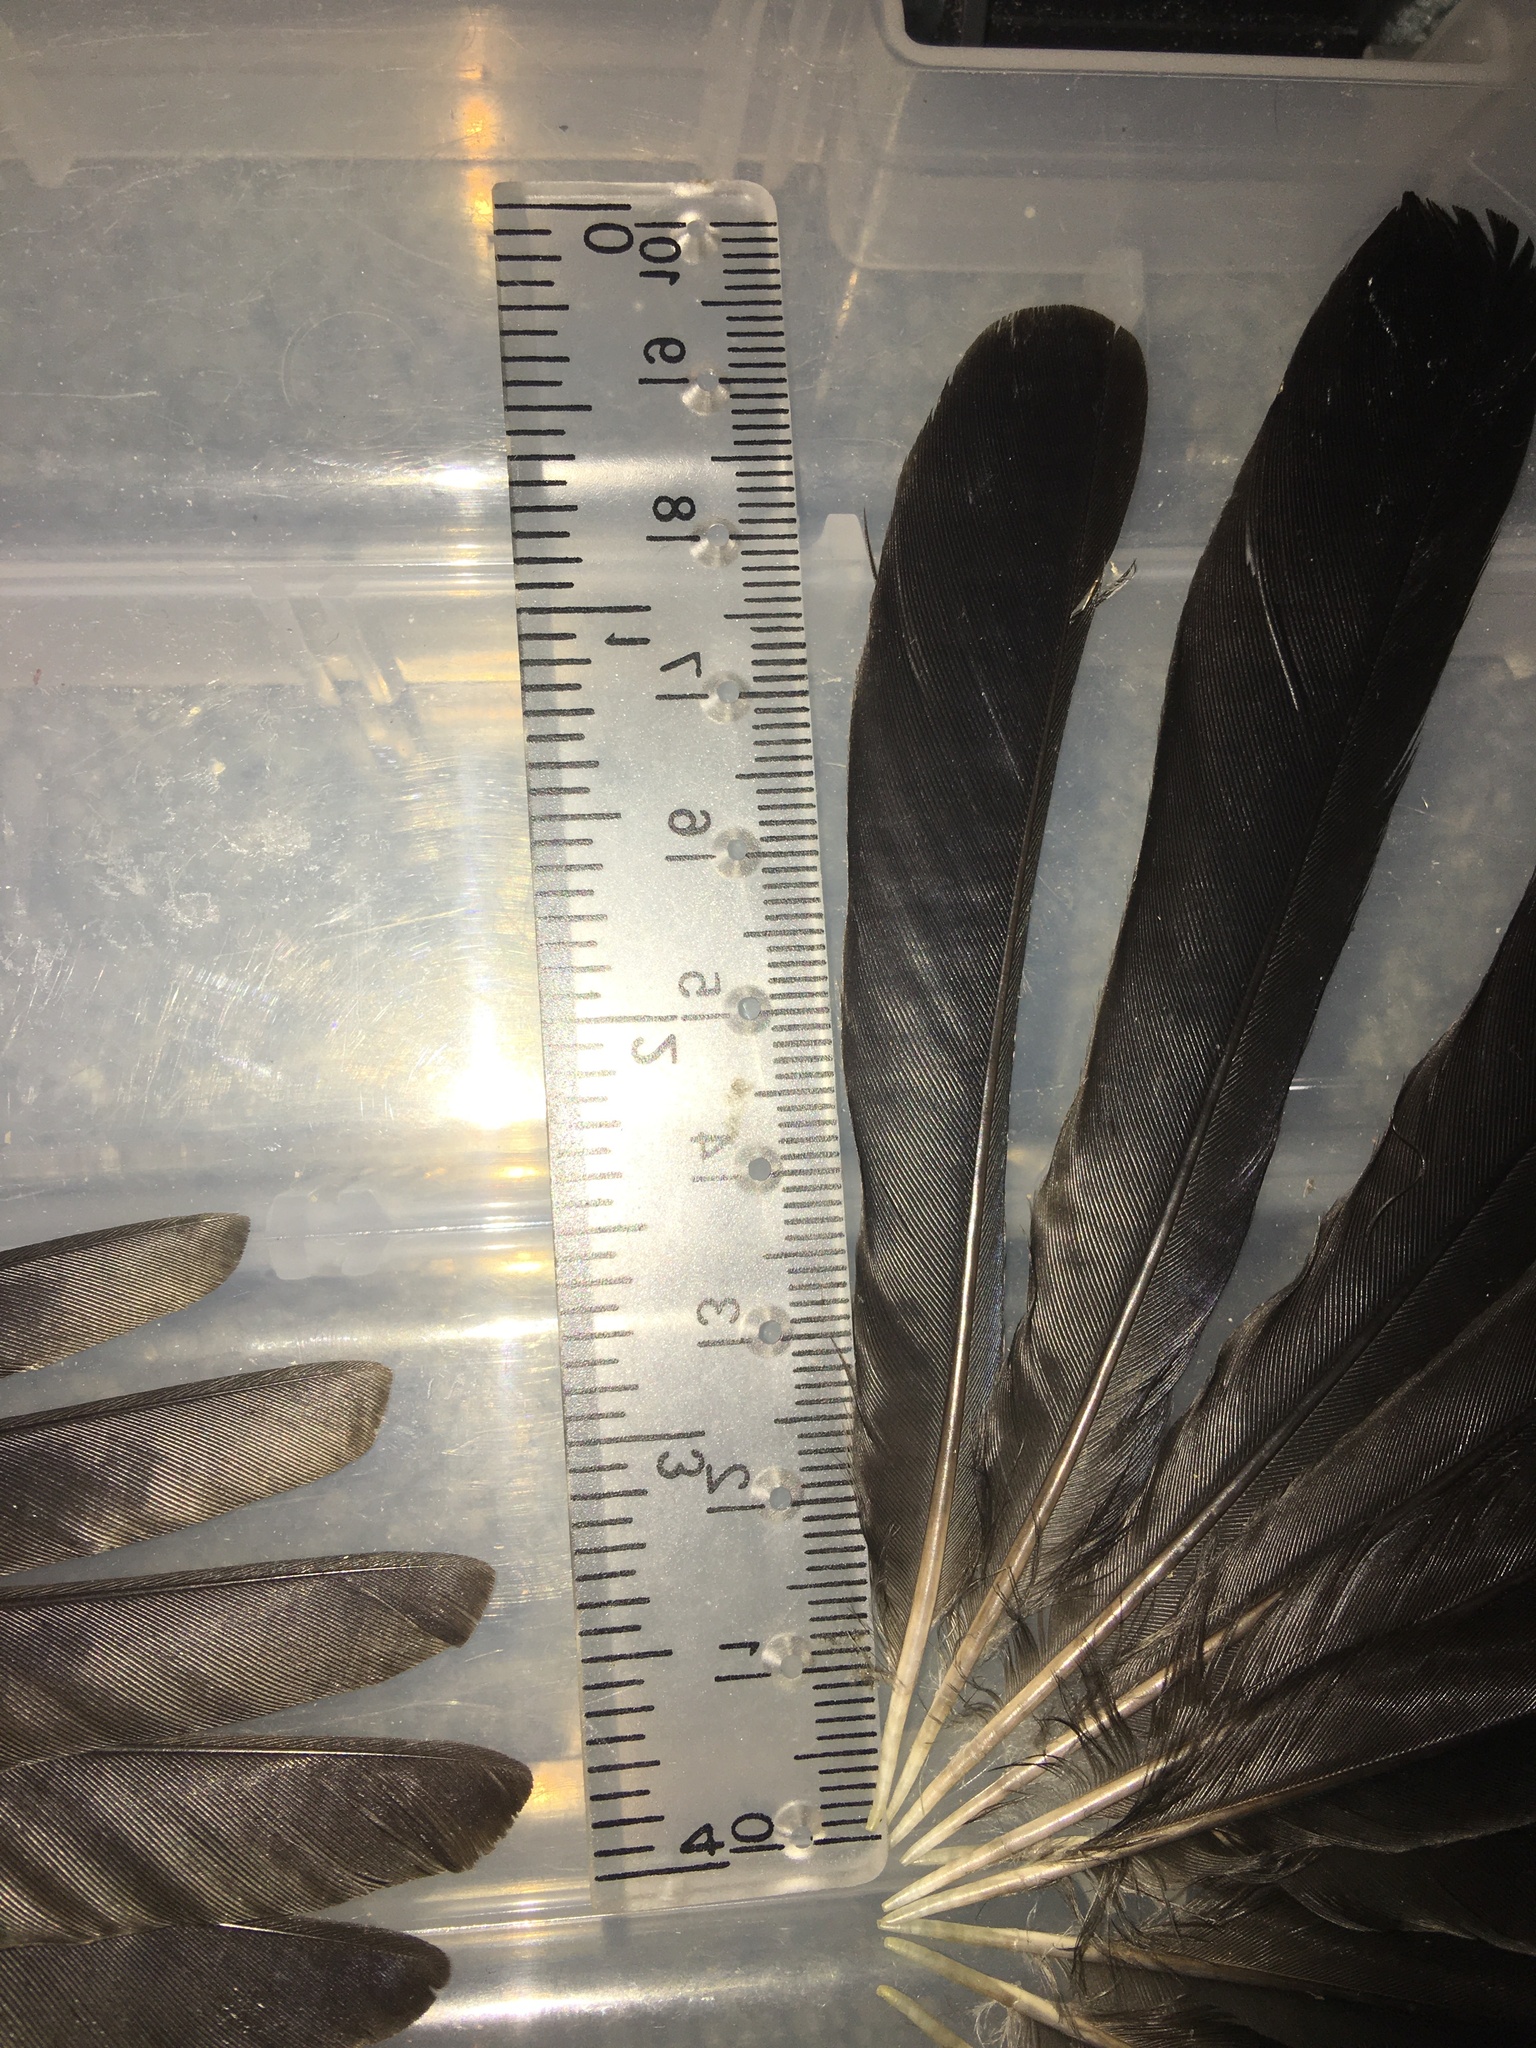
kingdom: Animalia
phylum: Chordata
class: Aves
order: Passeriformes
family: Icteridae
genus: Quiscalus
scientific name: Quiscalus quiscula
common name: Common grackle
